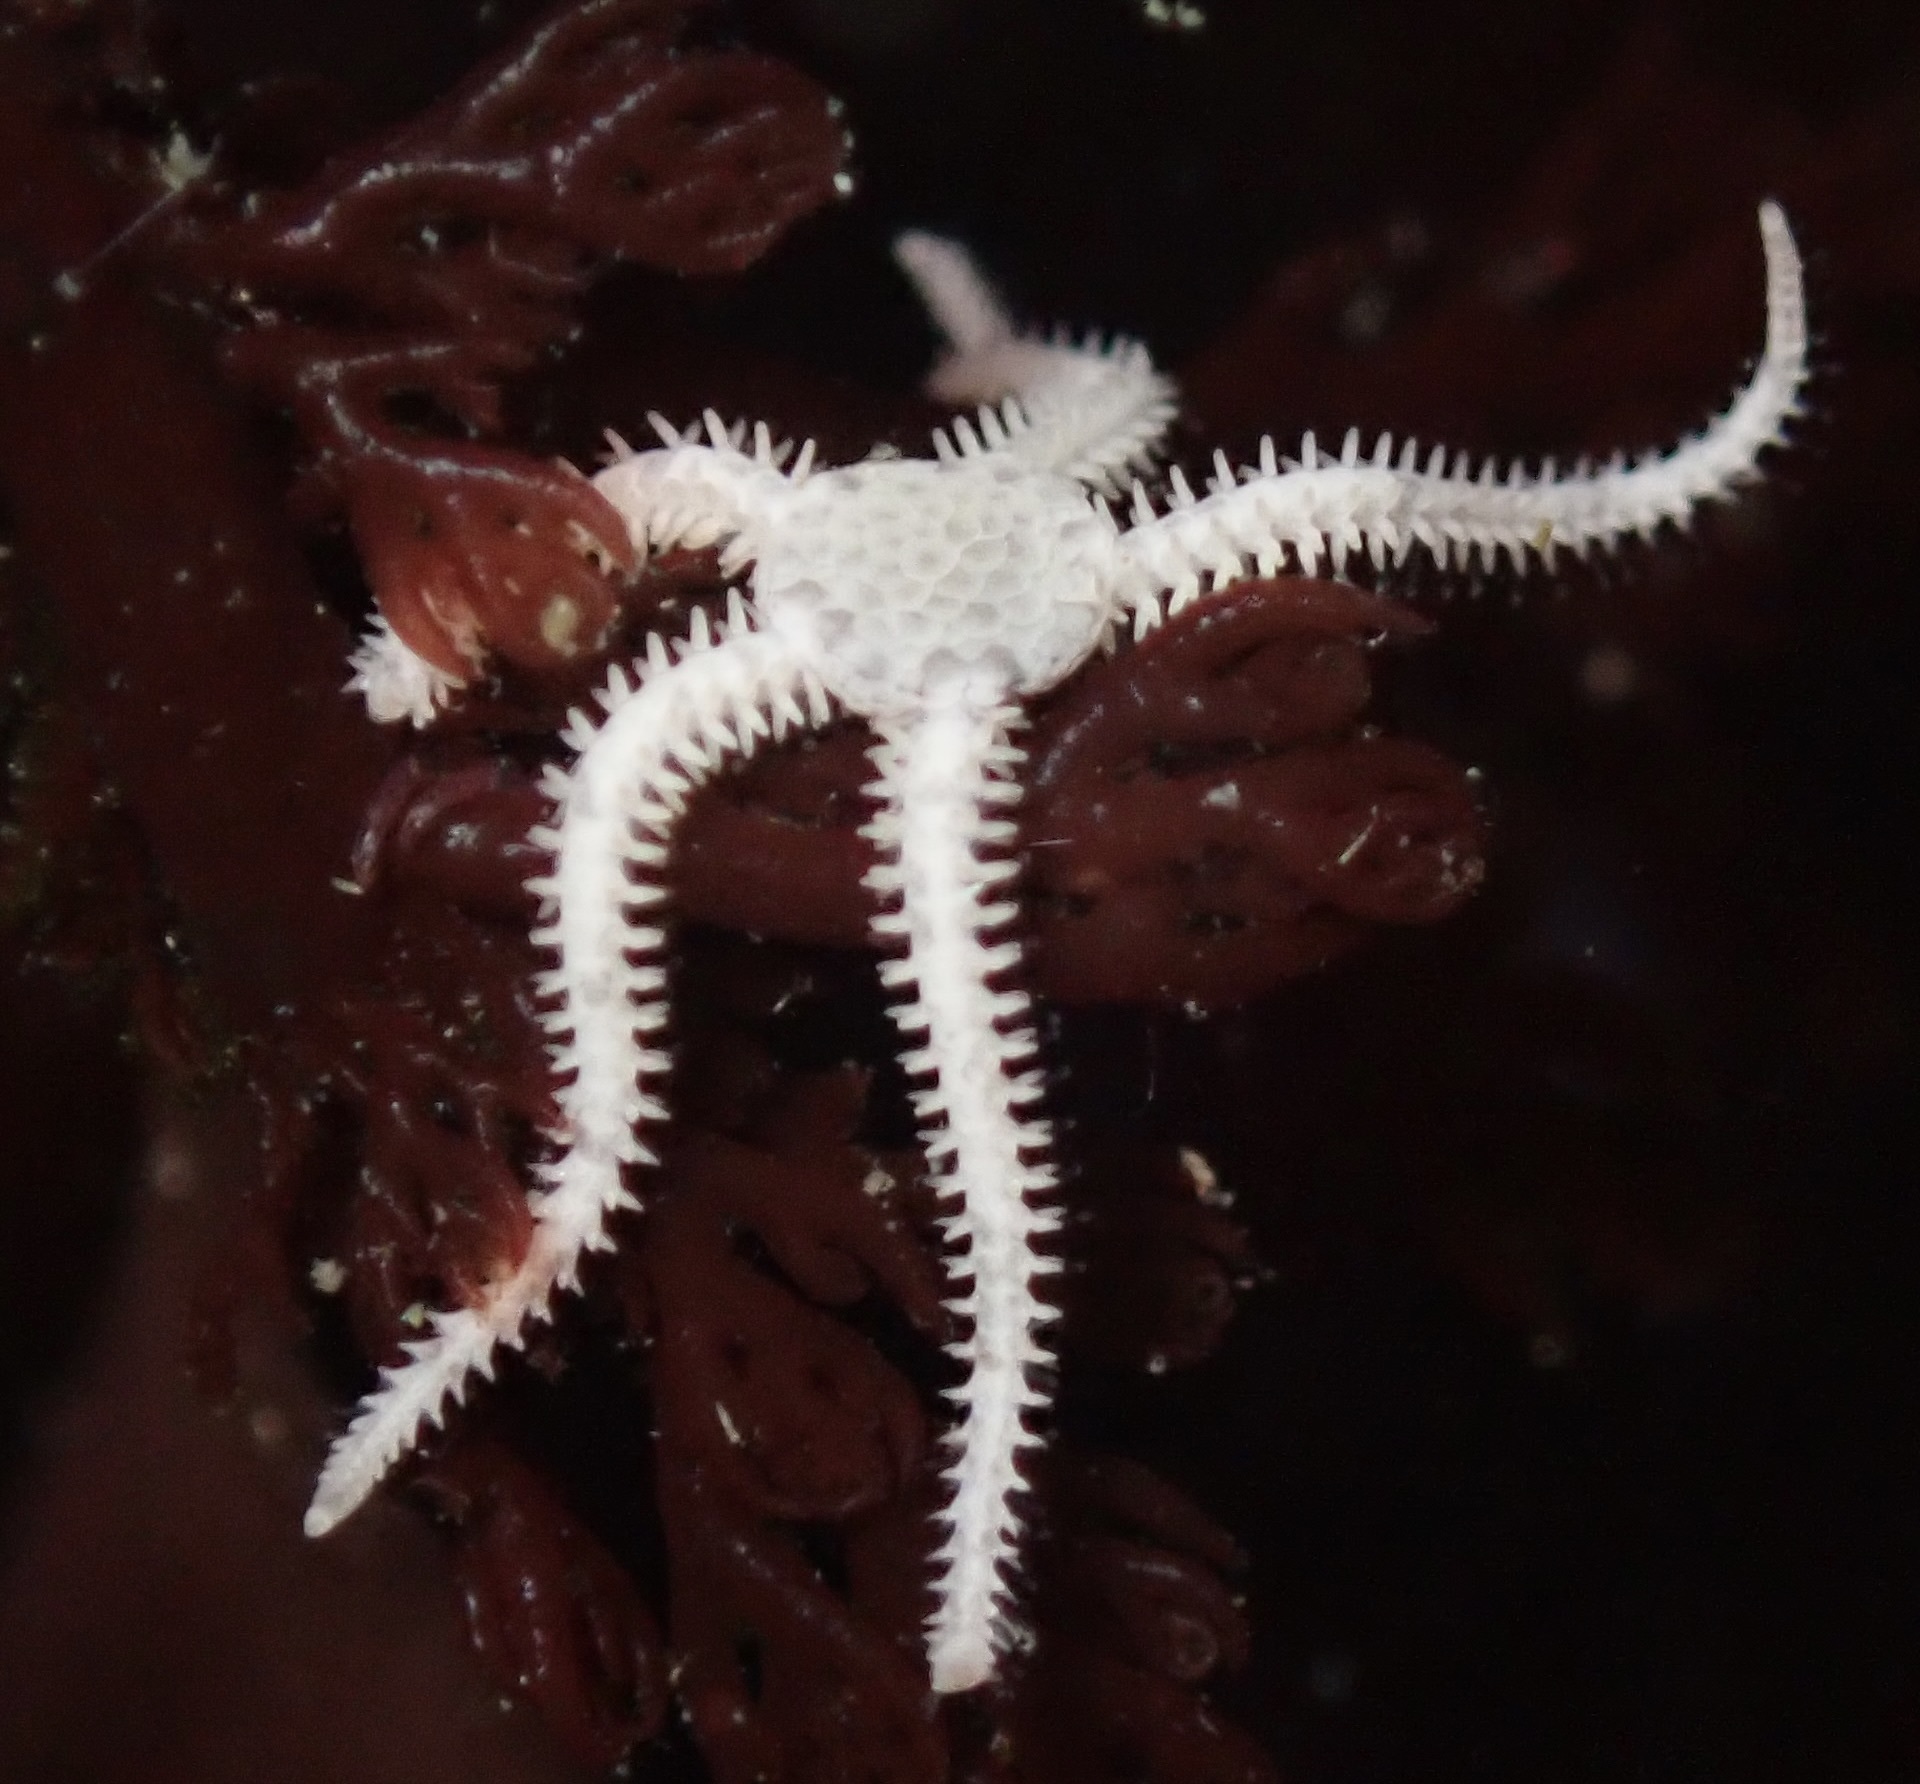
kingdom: Animalia
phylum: Echinodermata
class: Ophiuroidea
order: Amphilepidida
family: Amphiuridae
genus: Amphipholis
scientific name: Amphipholis squamata
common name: Brooding snake star
